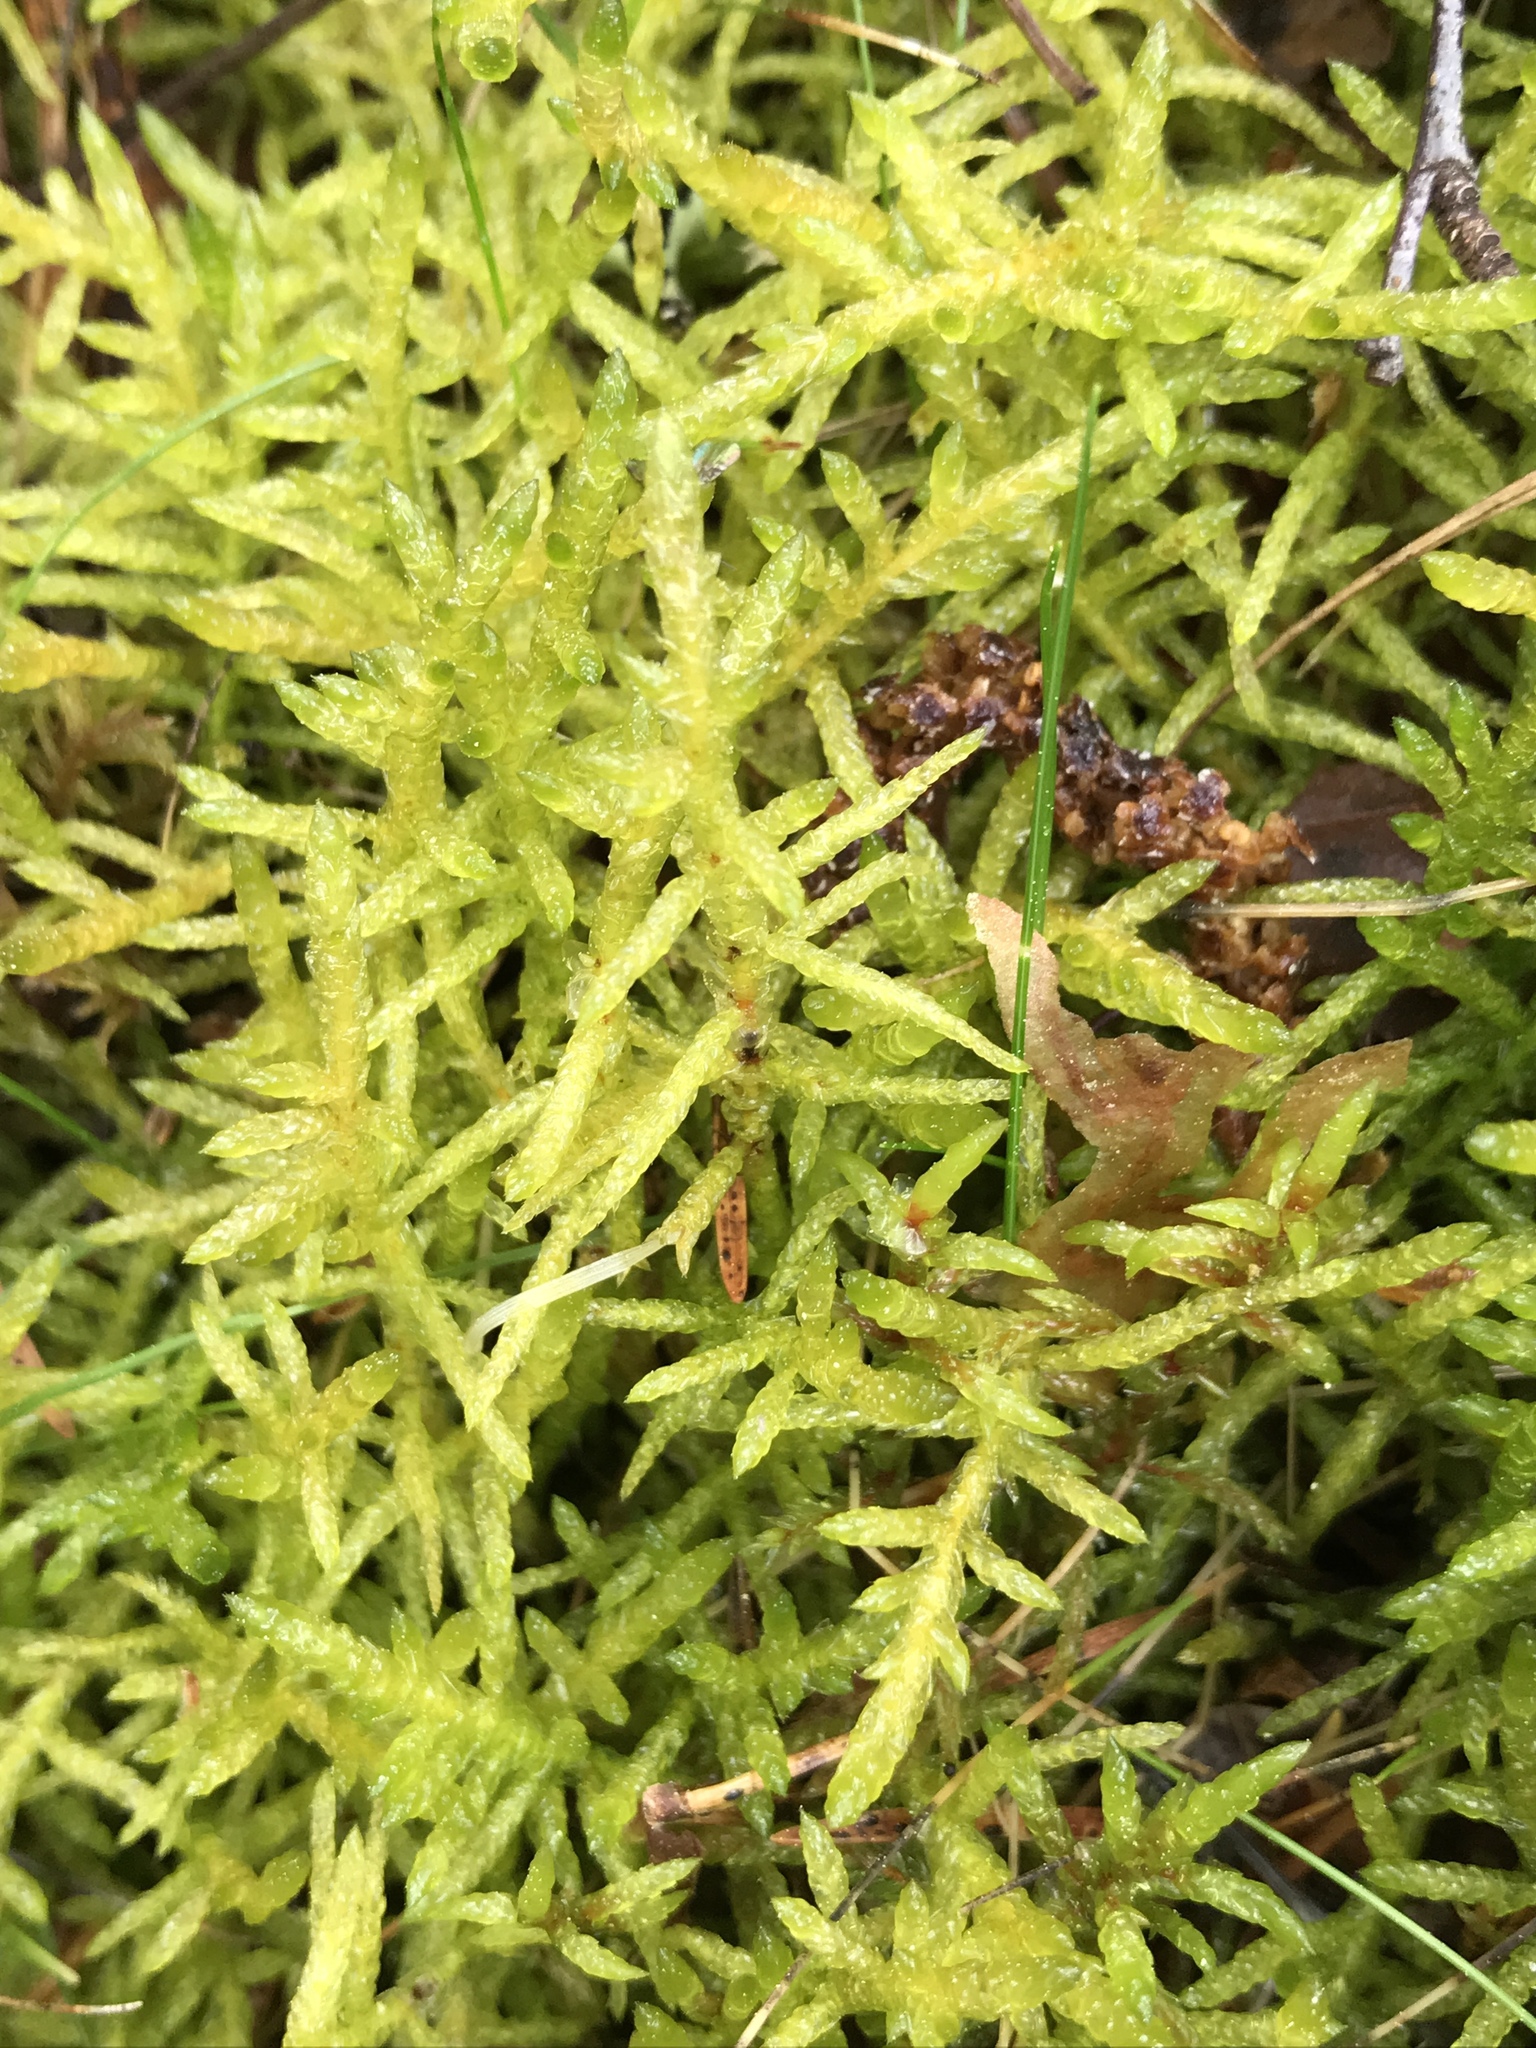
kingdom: Plantae
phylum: Bryophyta
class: Bryopsida
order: Hypnales
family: Brachytheciaceae
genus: Pseudoscleropodium
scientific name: Pseudoscleropodium purum
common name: Neat feather-moss
